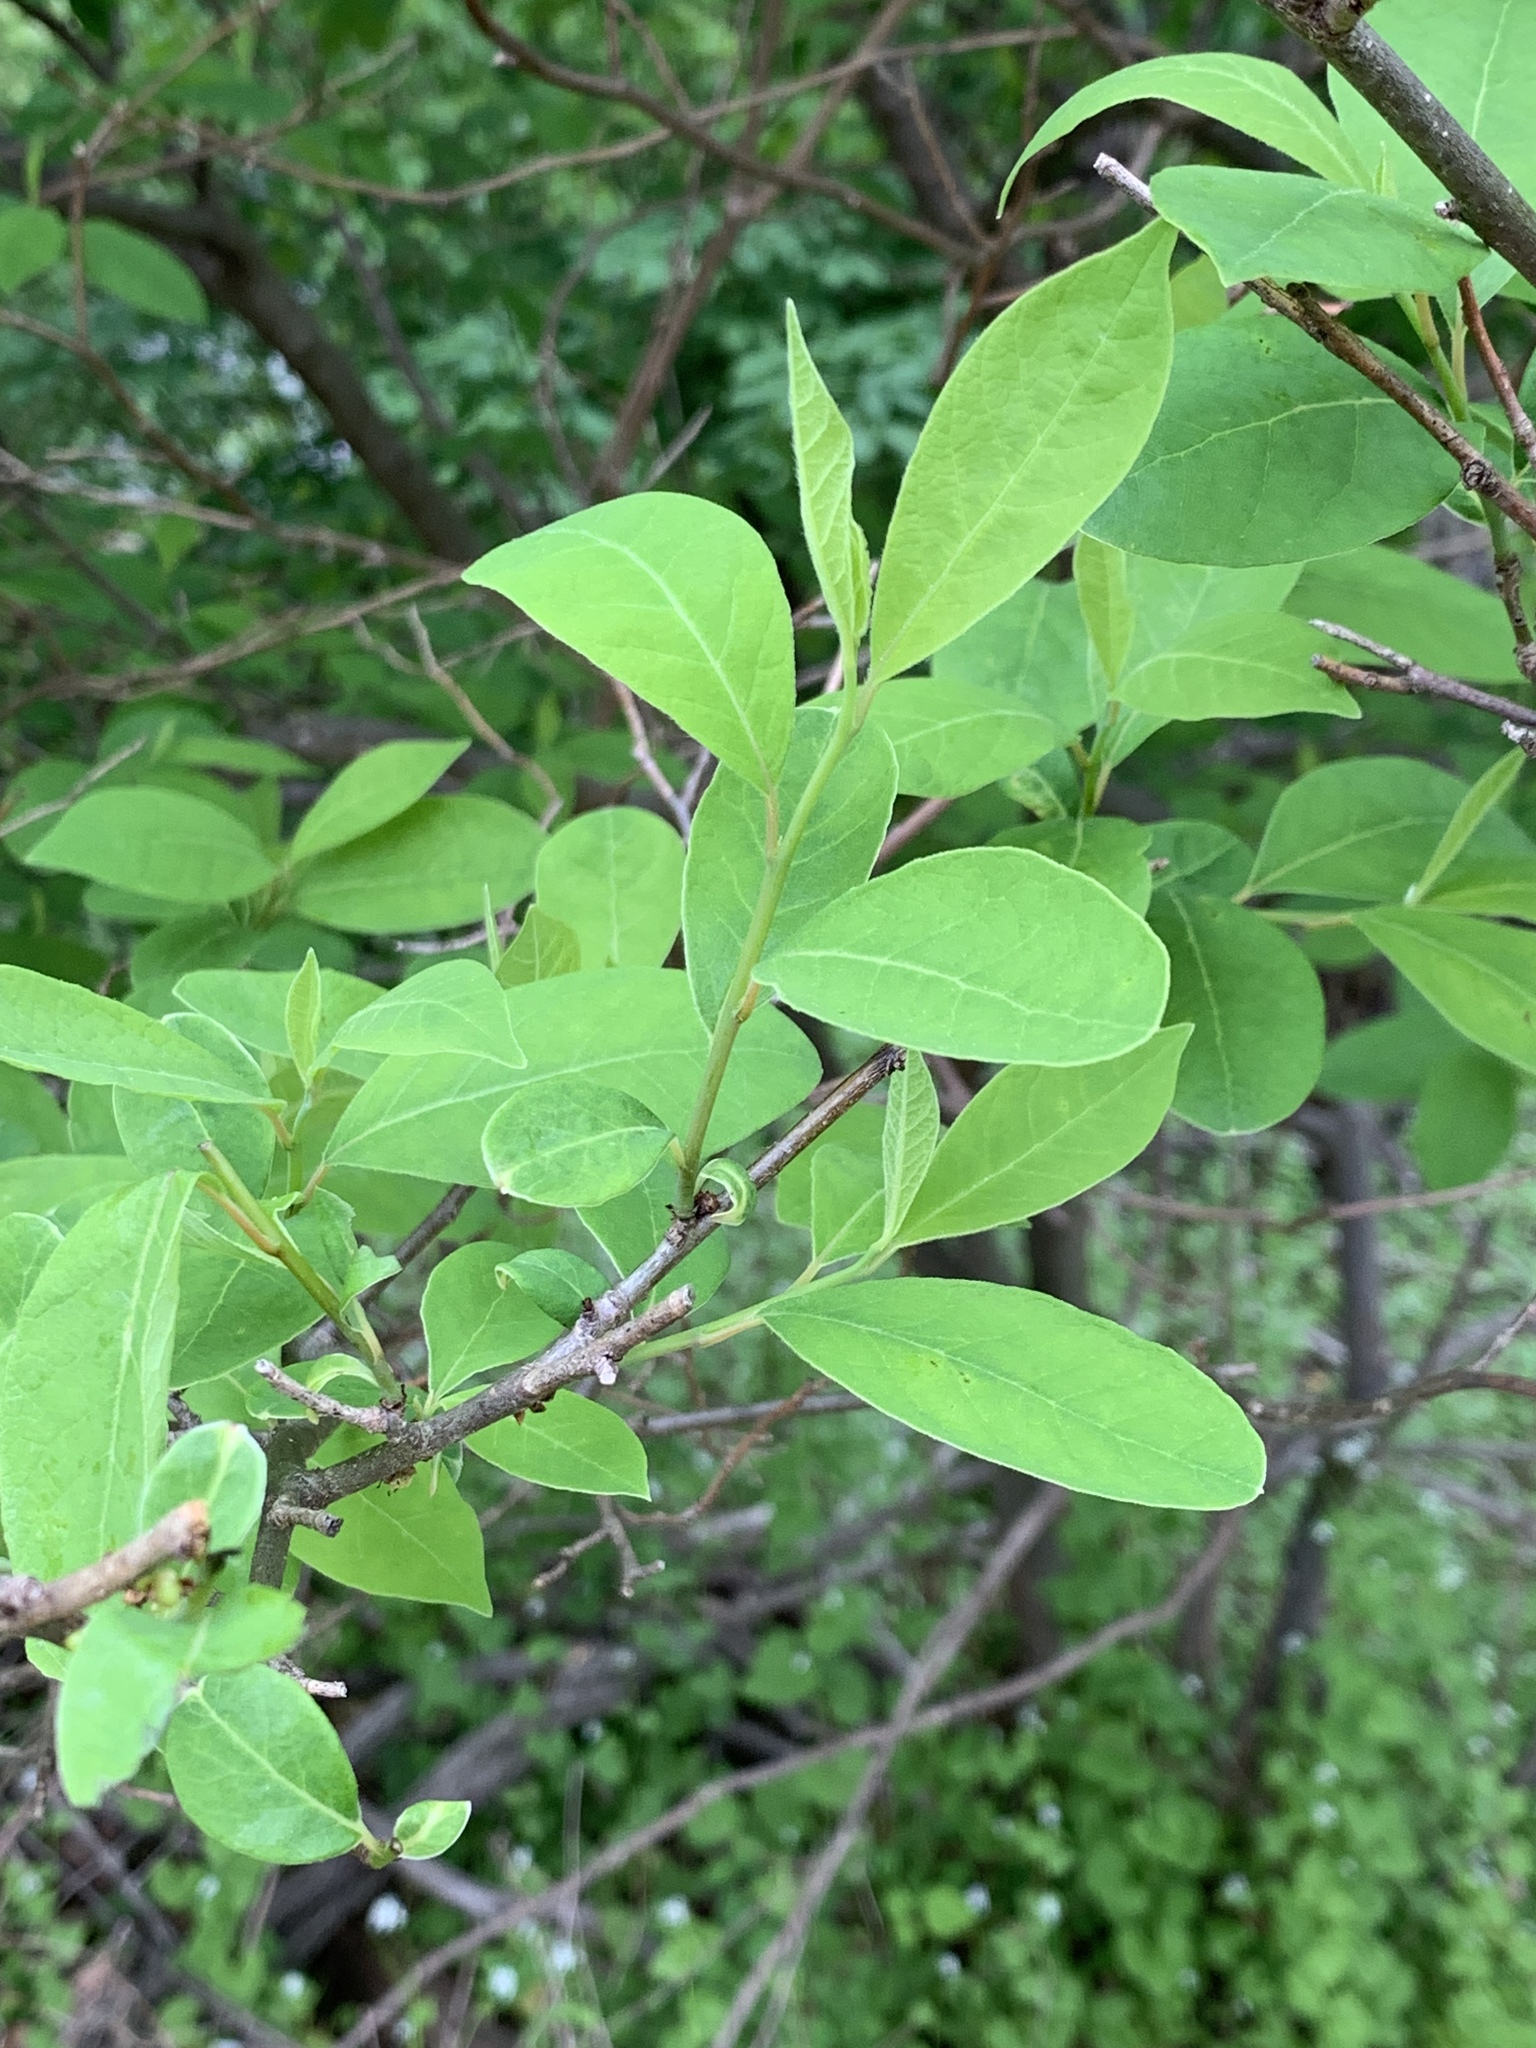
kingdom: Plantae
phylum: Tracheophyta
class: Magnoliopsida
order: Laurales
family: Lauraceae
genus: Lindera
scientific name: Lindera benzoin
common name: Spicebush
